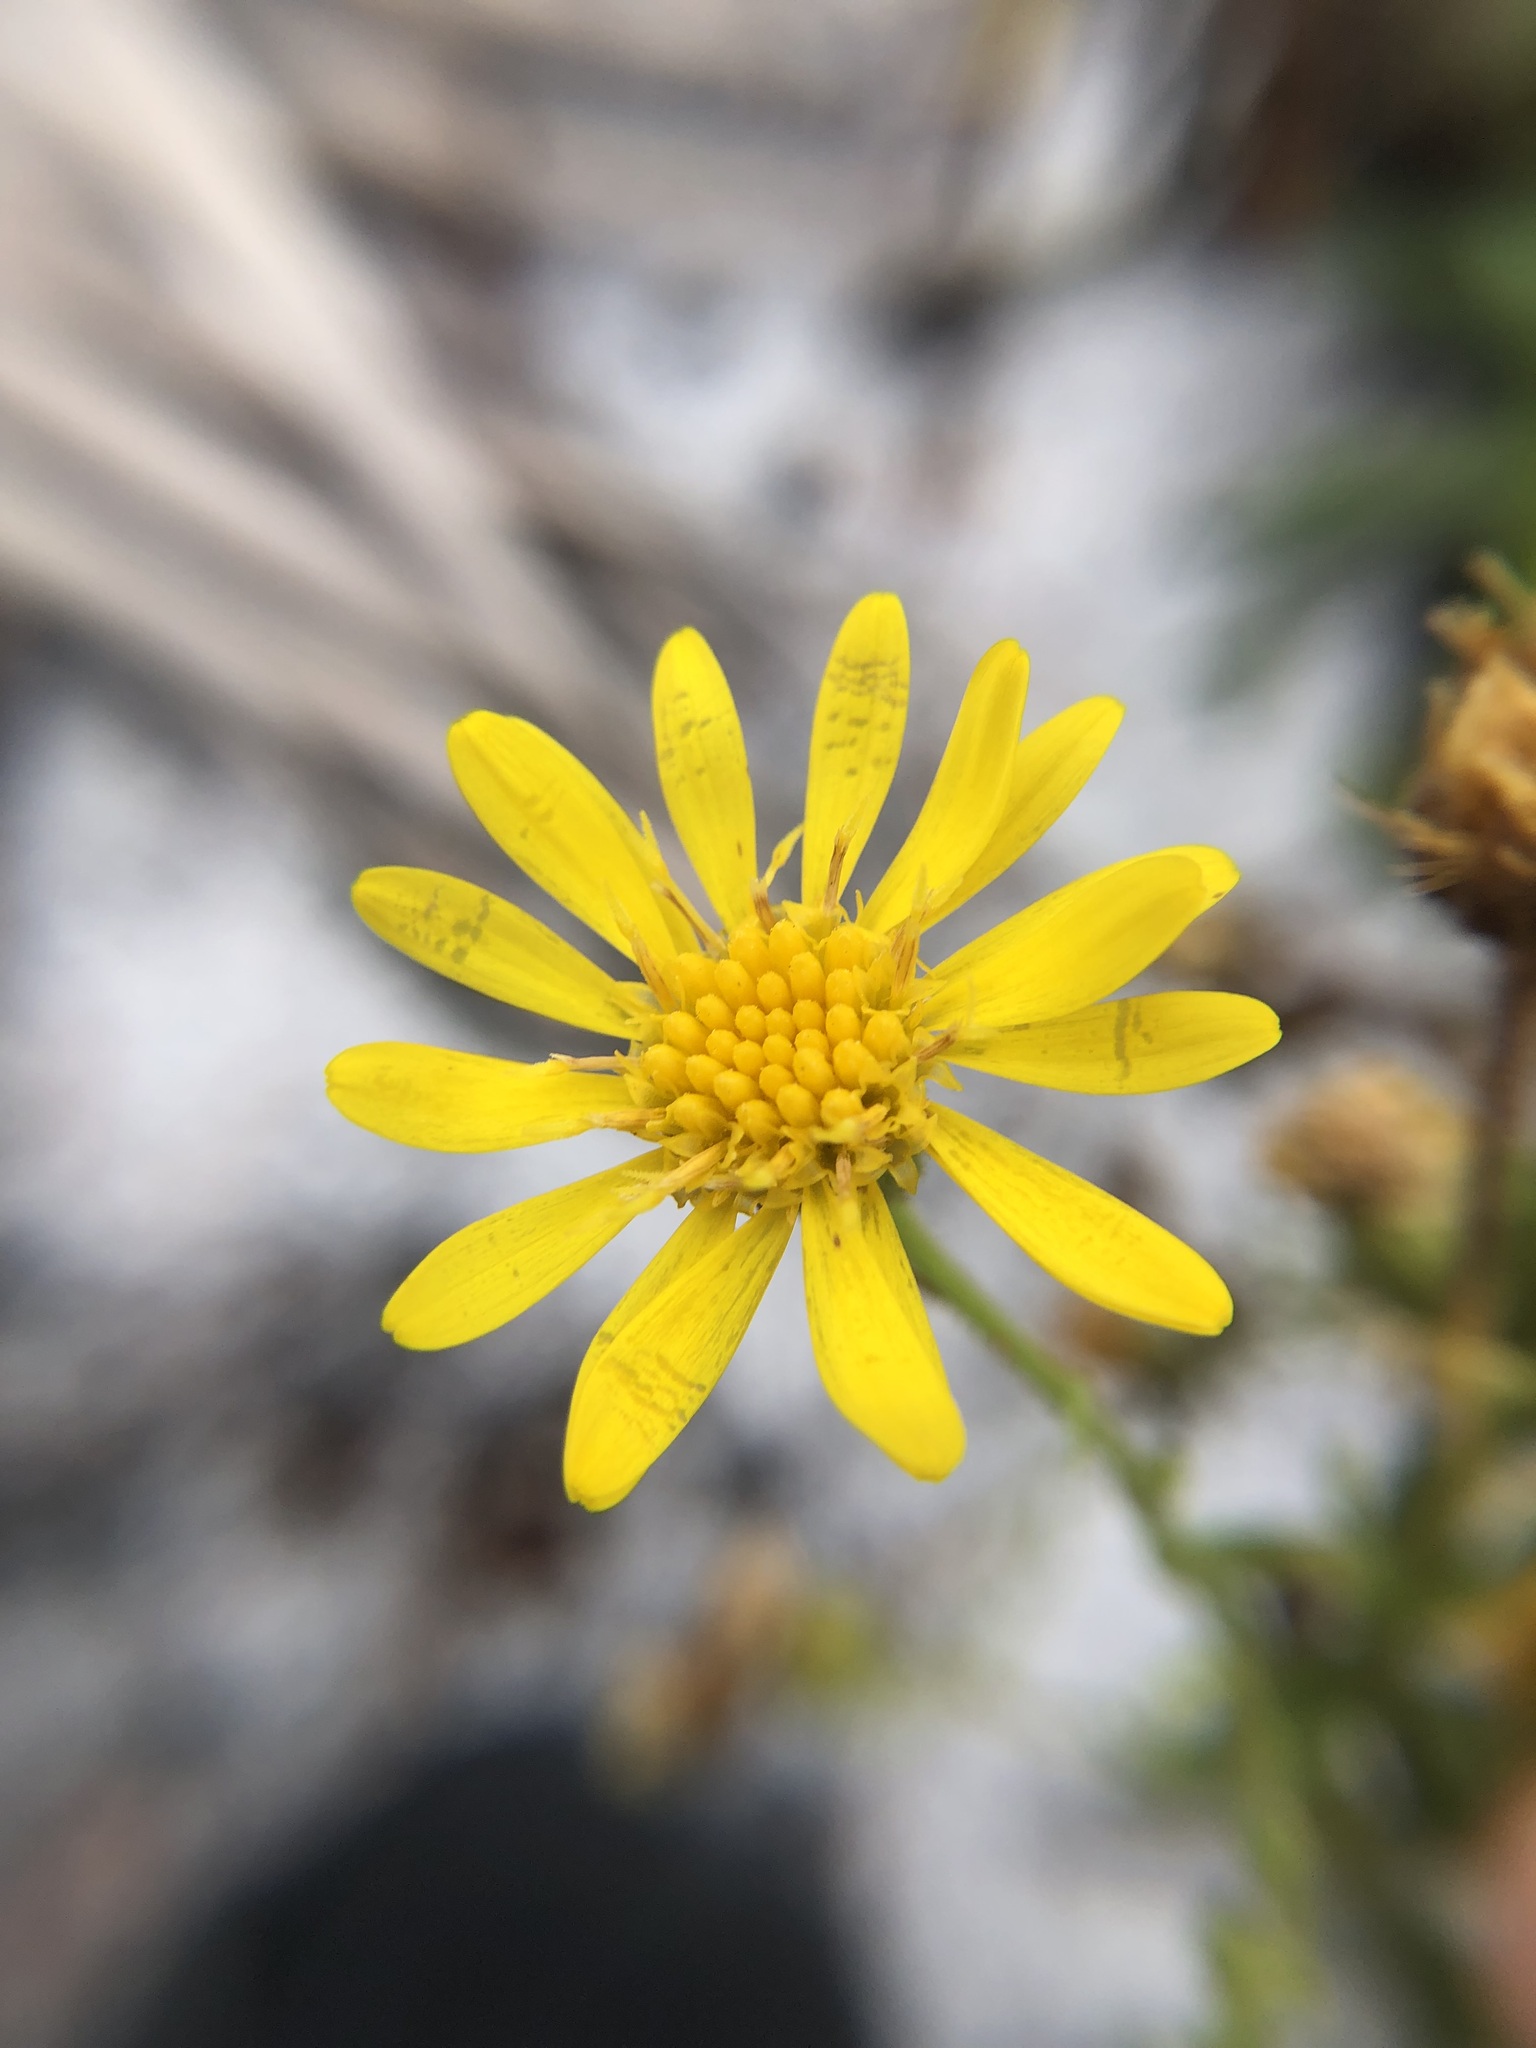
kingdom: Plantae
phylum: Tracheophyta
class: Magnoliopsida
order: Asterales
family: Asteraceae
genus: Chrysopsis
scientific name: Chrysopsis delaneyi
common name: Delaney's goldenaster
